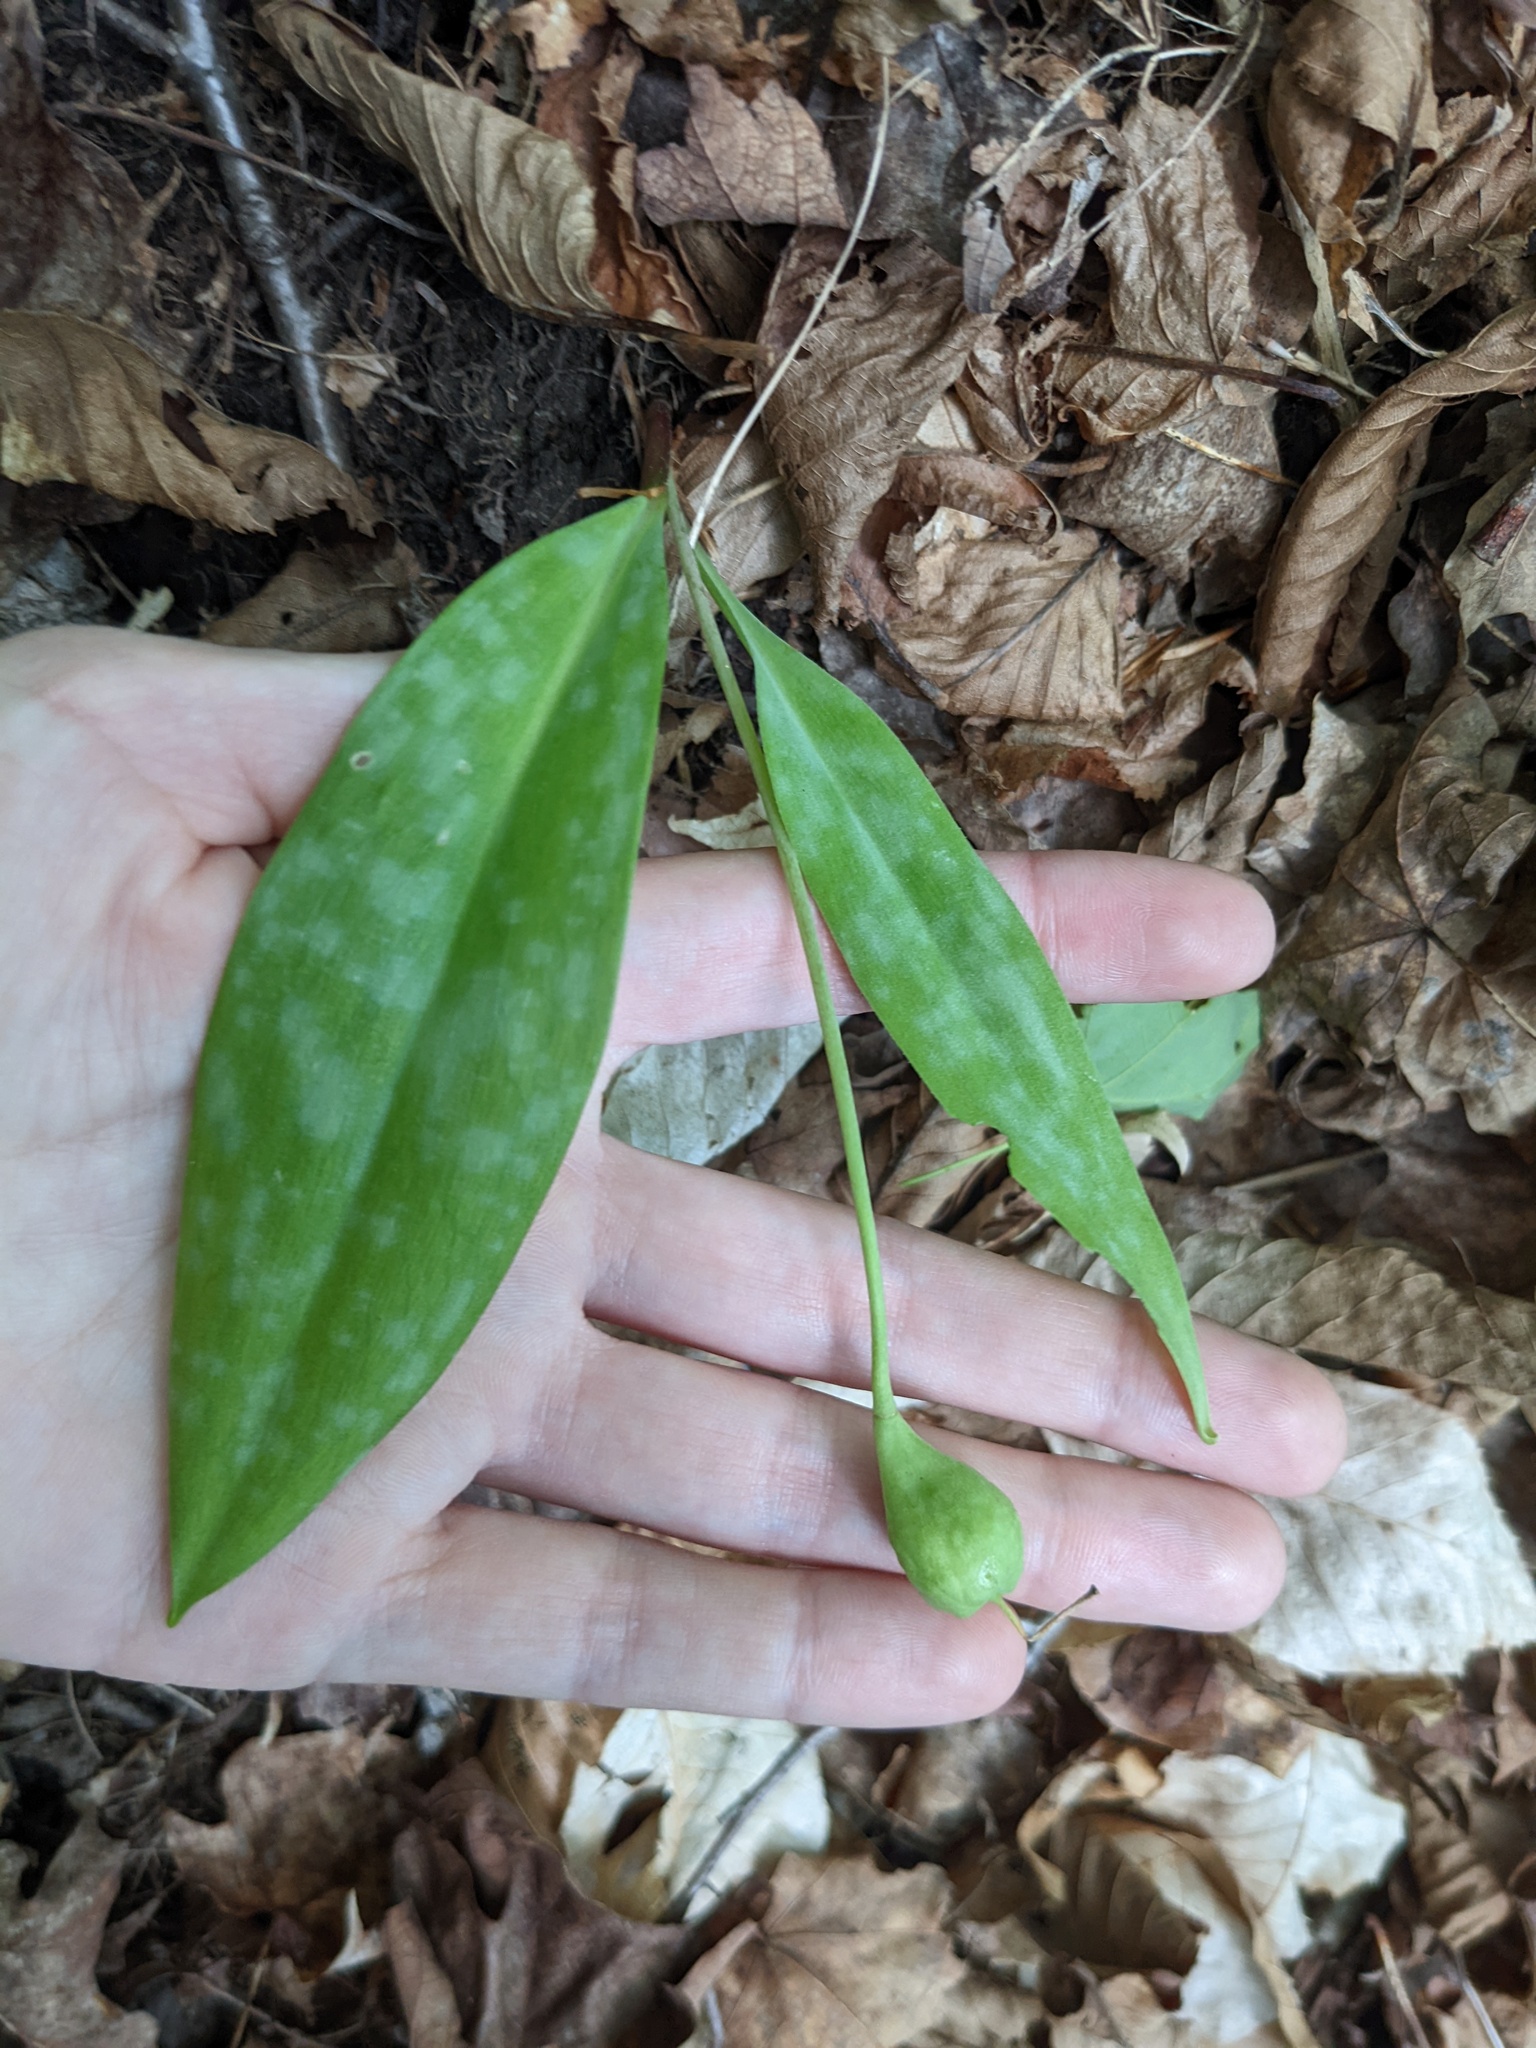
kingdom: Plantae
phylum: Tracheophyta
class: Liliopsida
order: Liliales
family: Liliaceae
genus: Erythronium
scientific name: Erythronium americanum
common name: Yellow adder's-tongue
